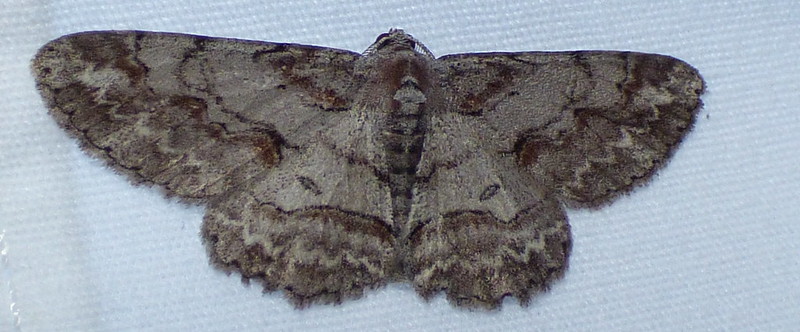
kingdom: Animalia
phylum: Arthropoda
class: Insecta
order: Lepidoptera
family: Geometridae
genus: Iridopsis
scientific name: Iridopsis defectaria
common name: Brown-shaded gray
